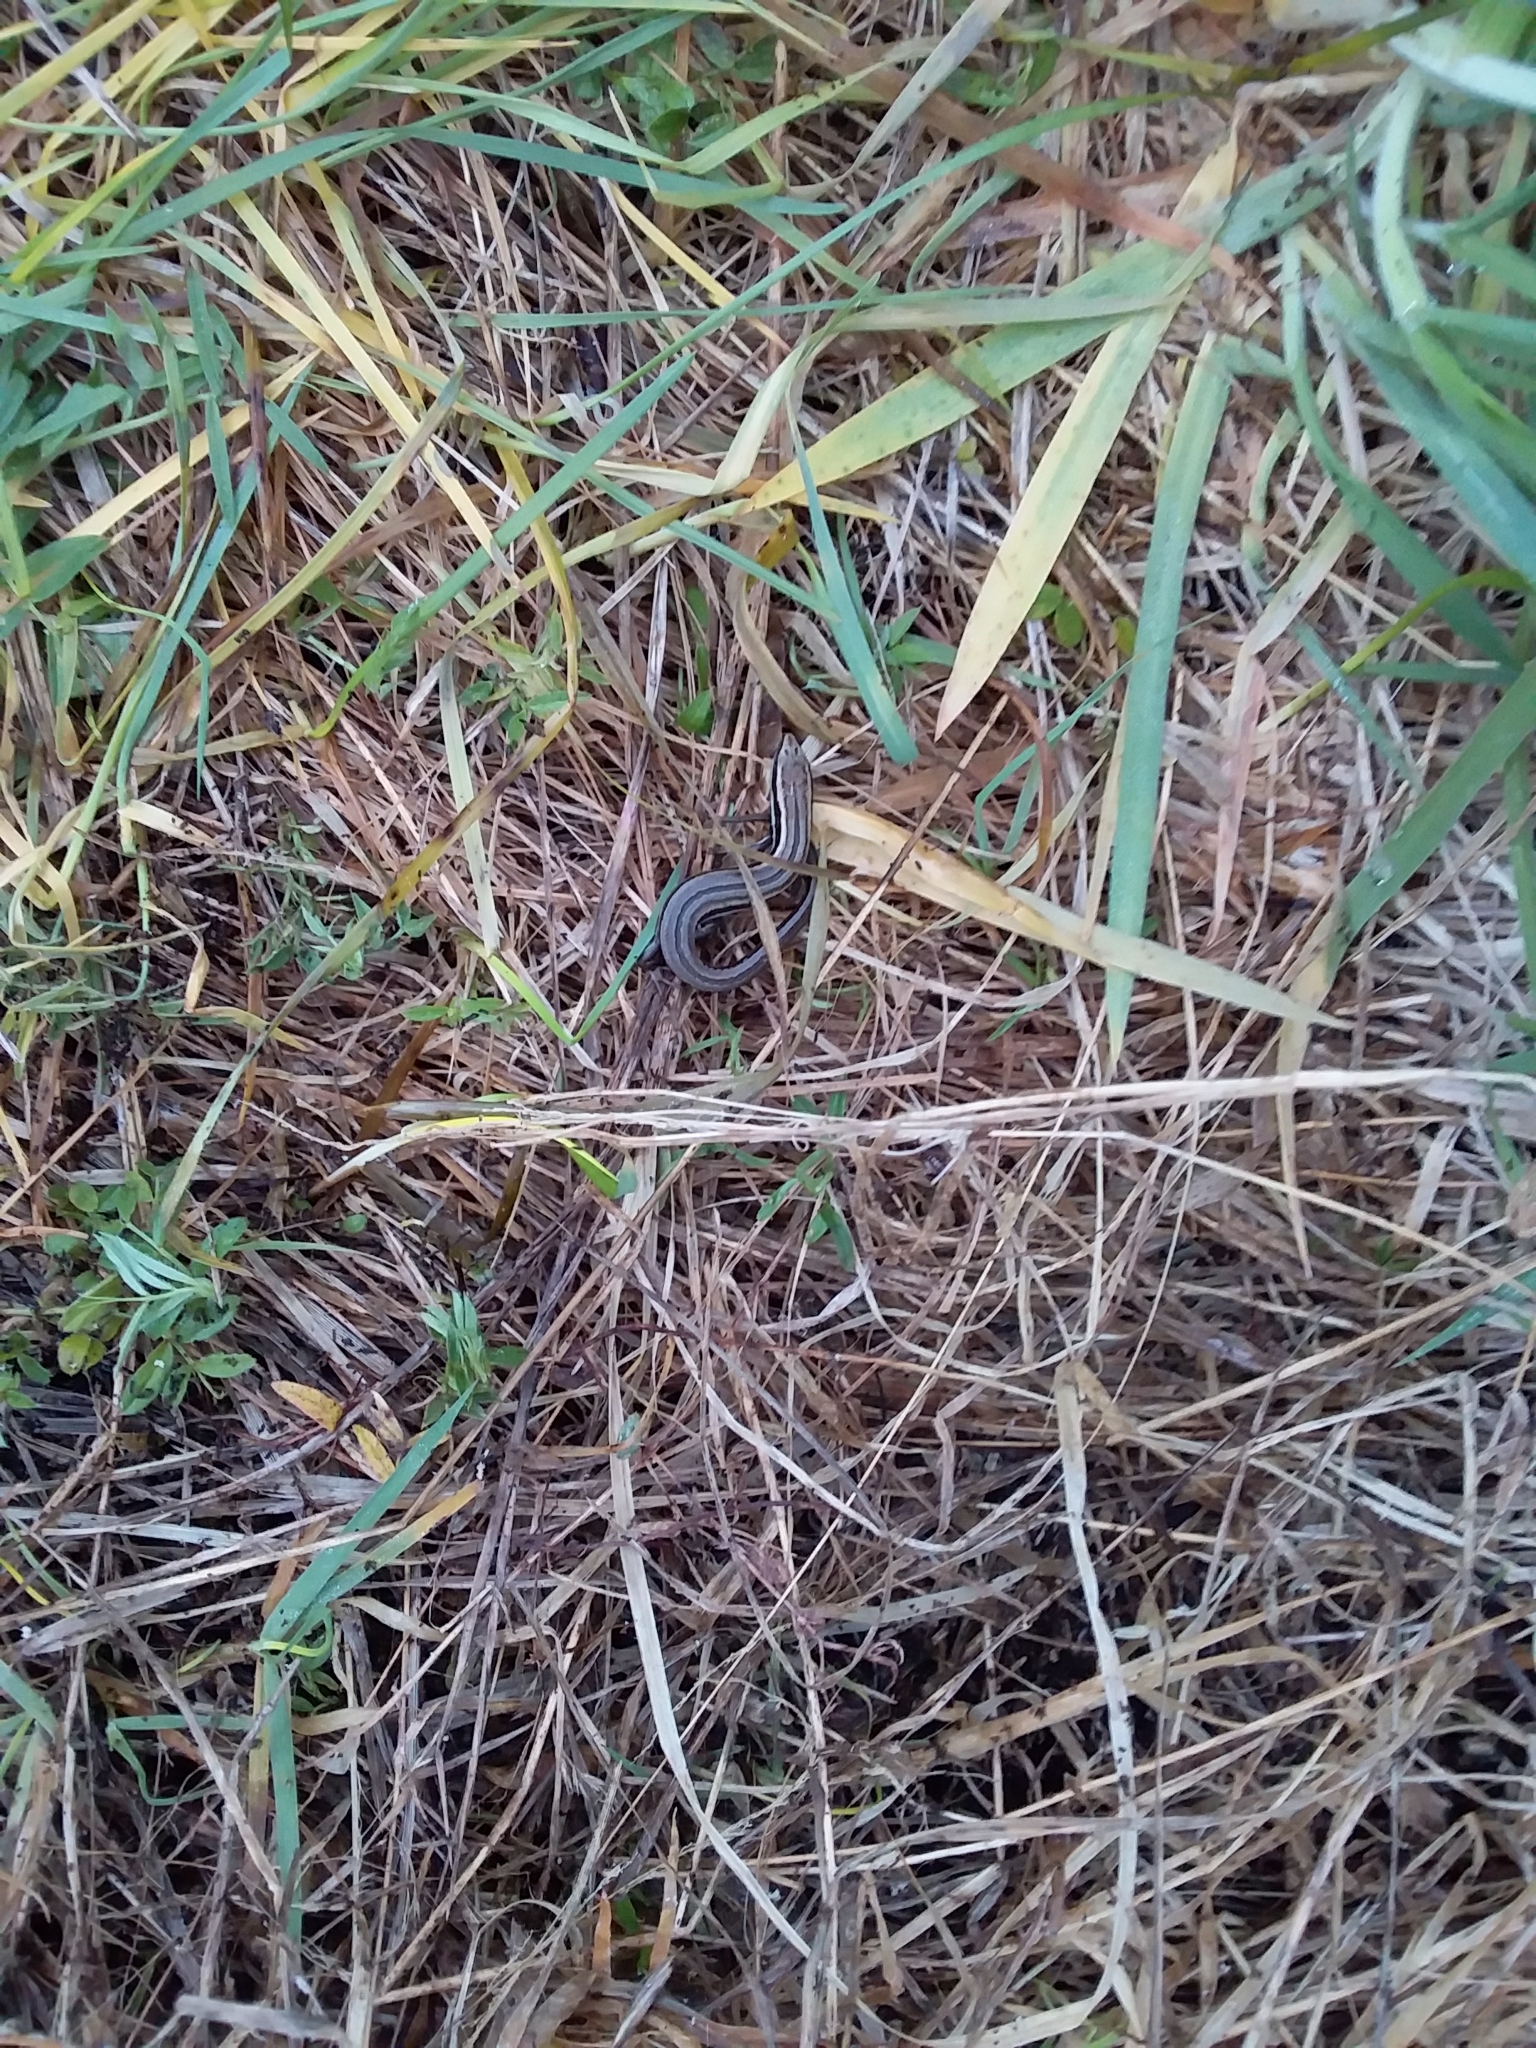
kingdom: Animalia
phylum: Chordata
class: Squamata
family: Scincidae
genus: Oligosoma
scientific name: Oligosoma polychroma
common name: Common new zealand skink
